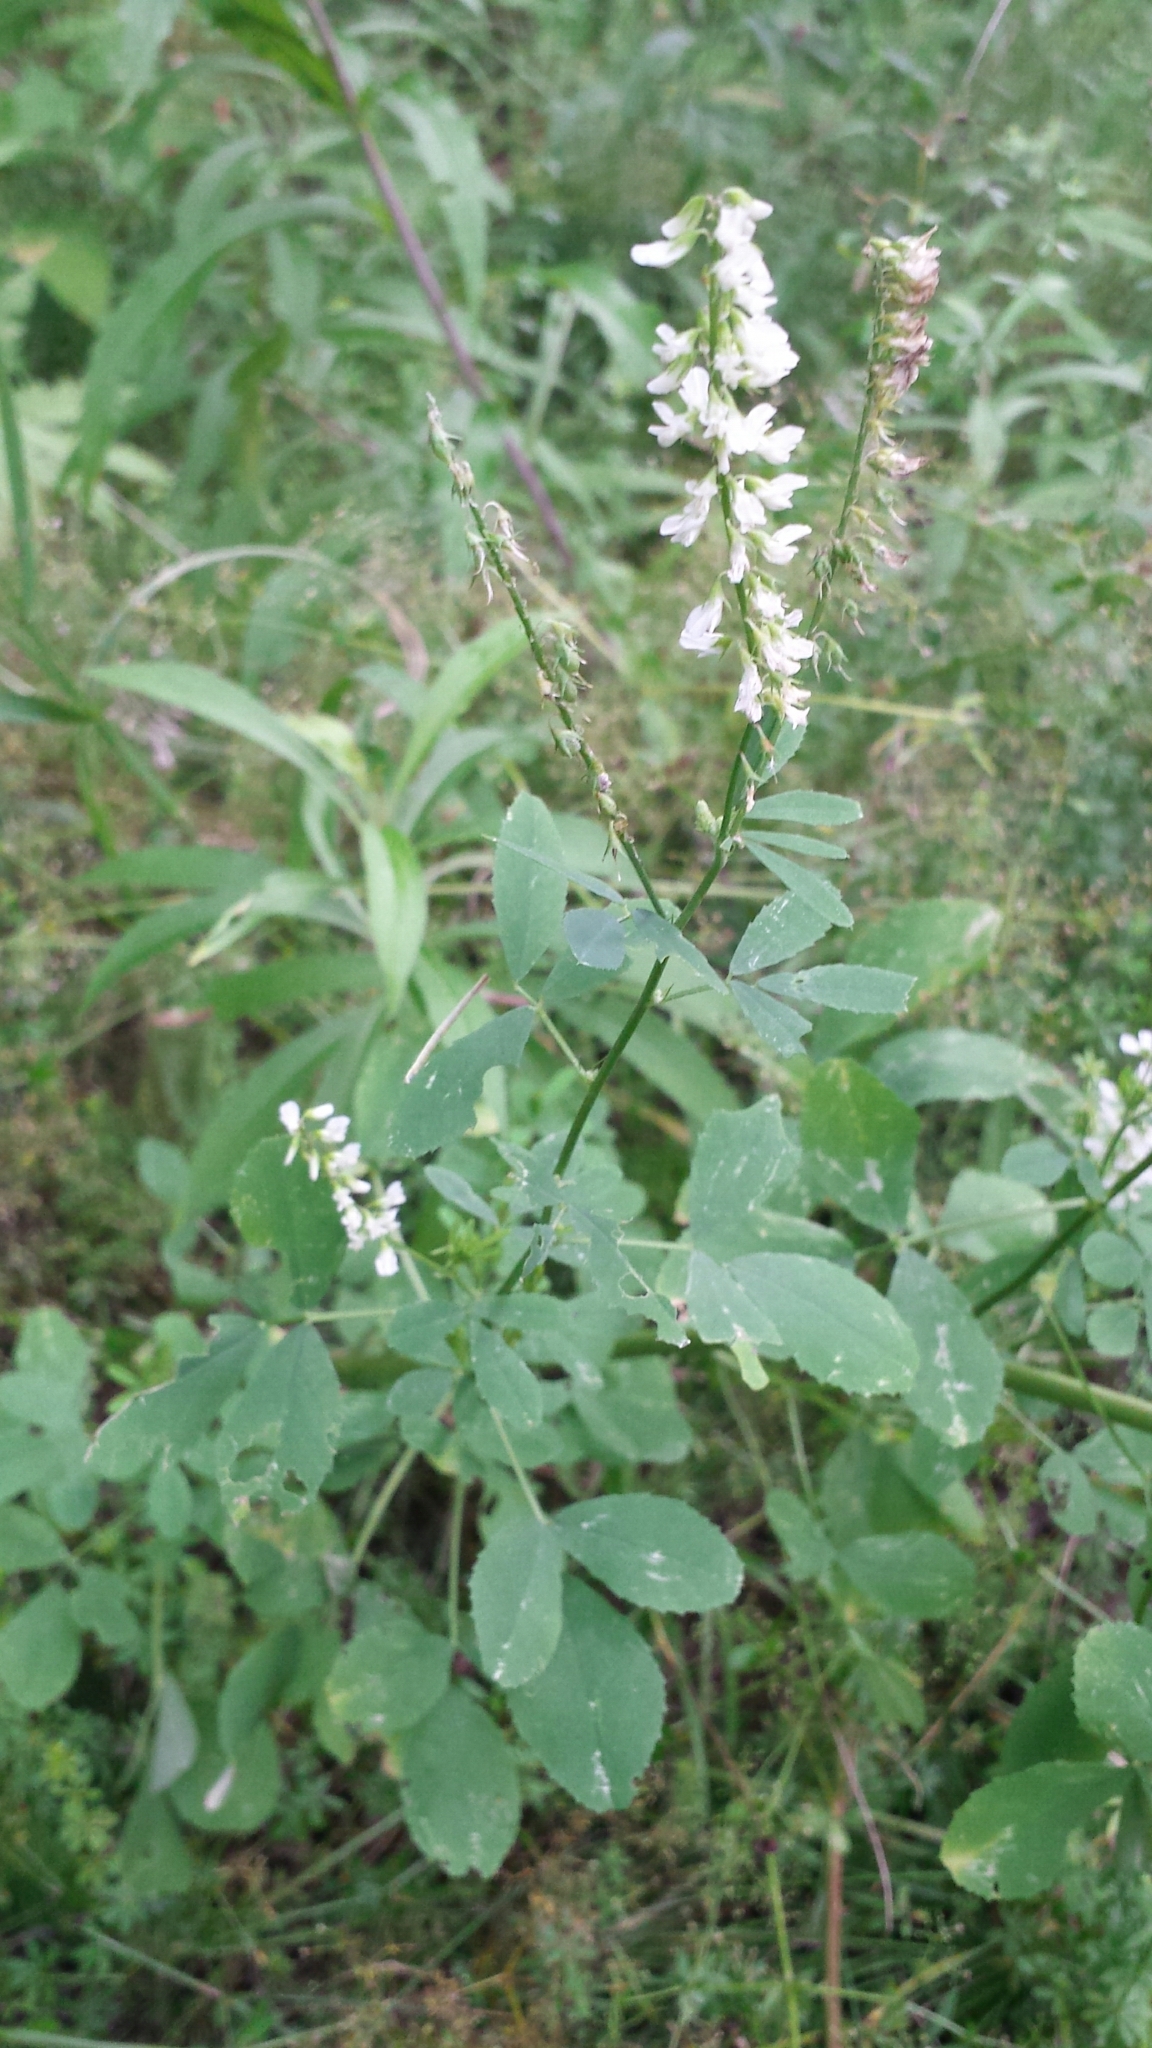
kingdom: Plantae
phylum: Tracheophyta
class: Magnoliopsida
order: Fabales
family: Fabaceae
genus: Melilotus
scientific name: Melilotus albus
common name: White melilot
